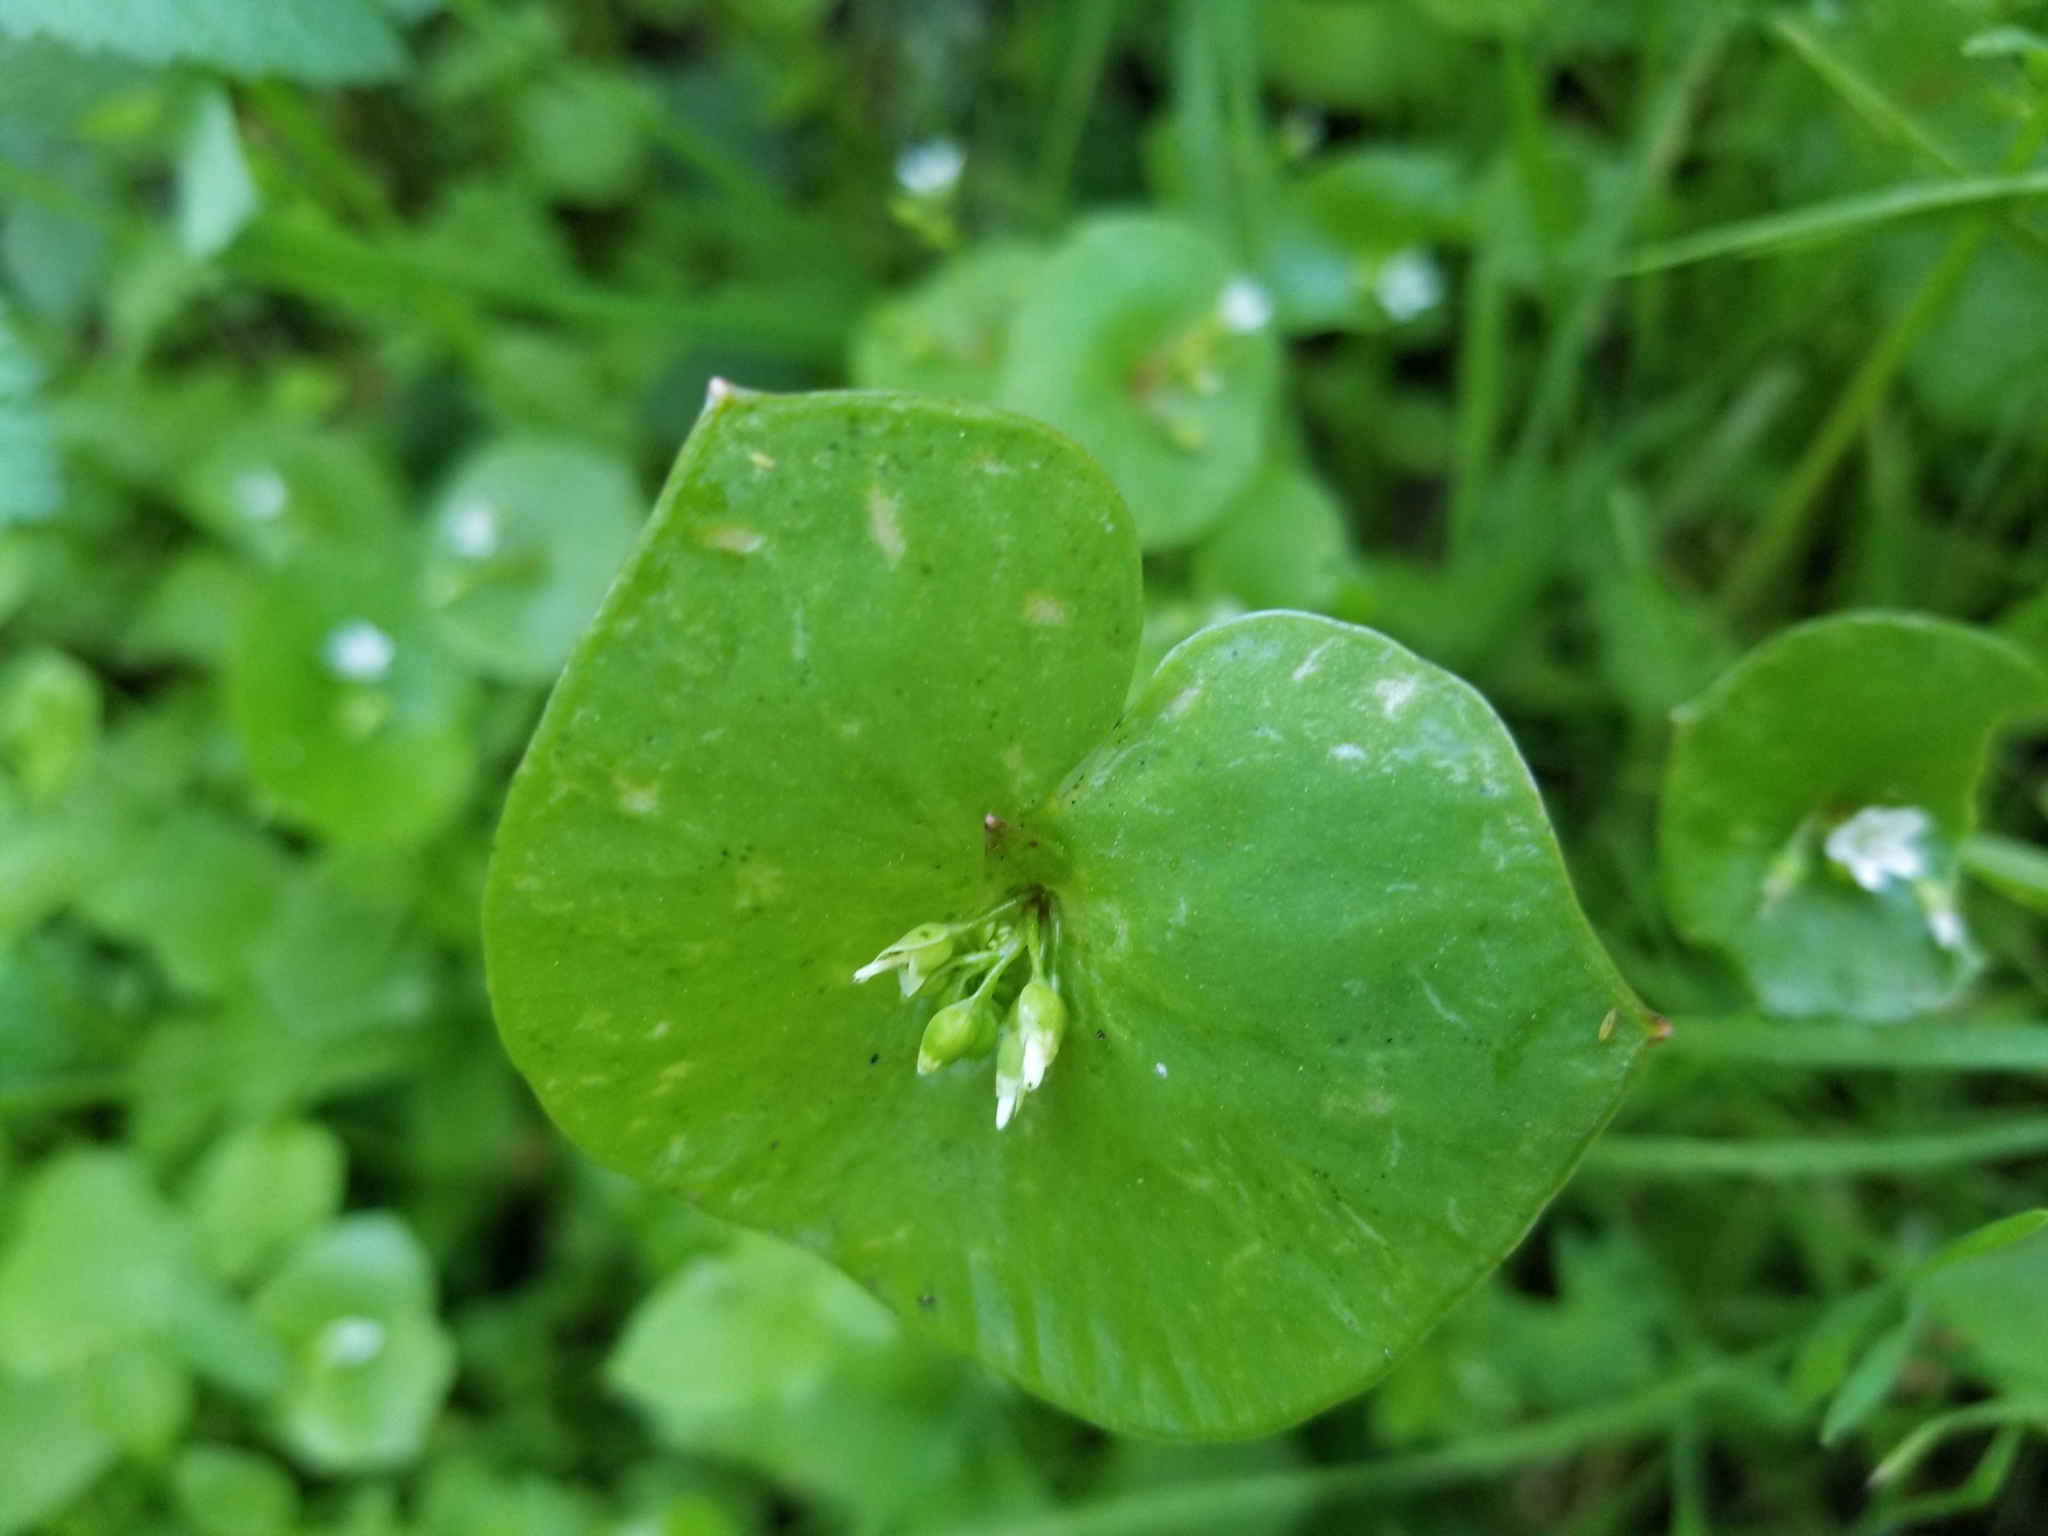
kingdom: Plantae
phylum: Tracheophyta
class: Magnoliopsida
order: Caryophyllales
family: Montiaceae
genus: Claytonia
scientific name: Claytonia perfoliata
